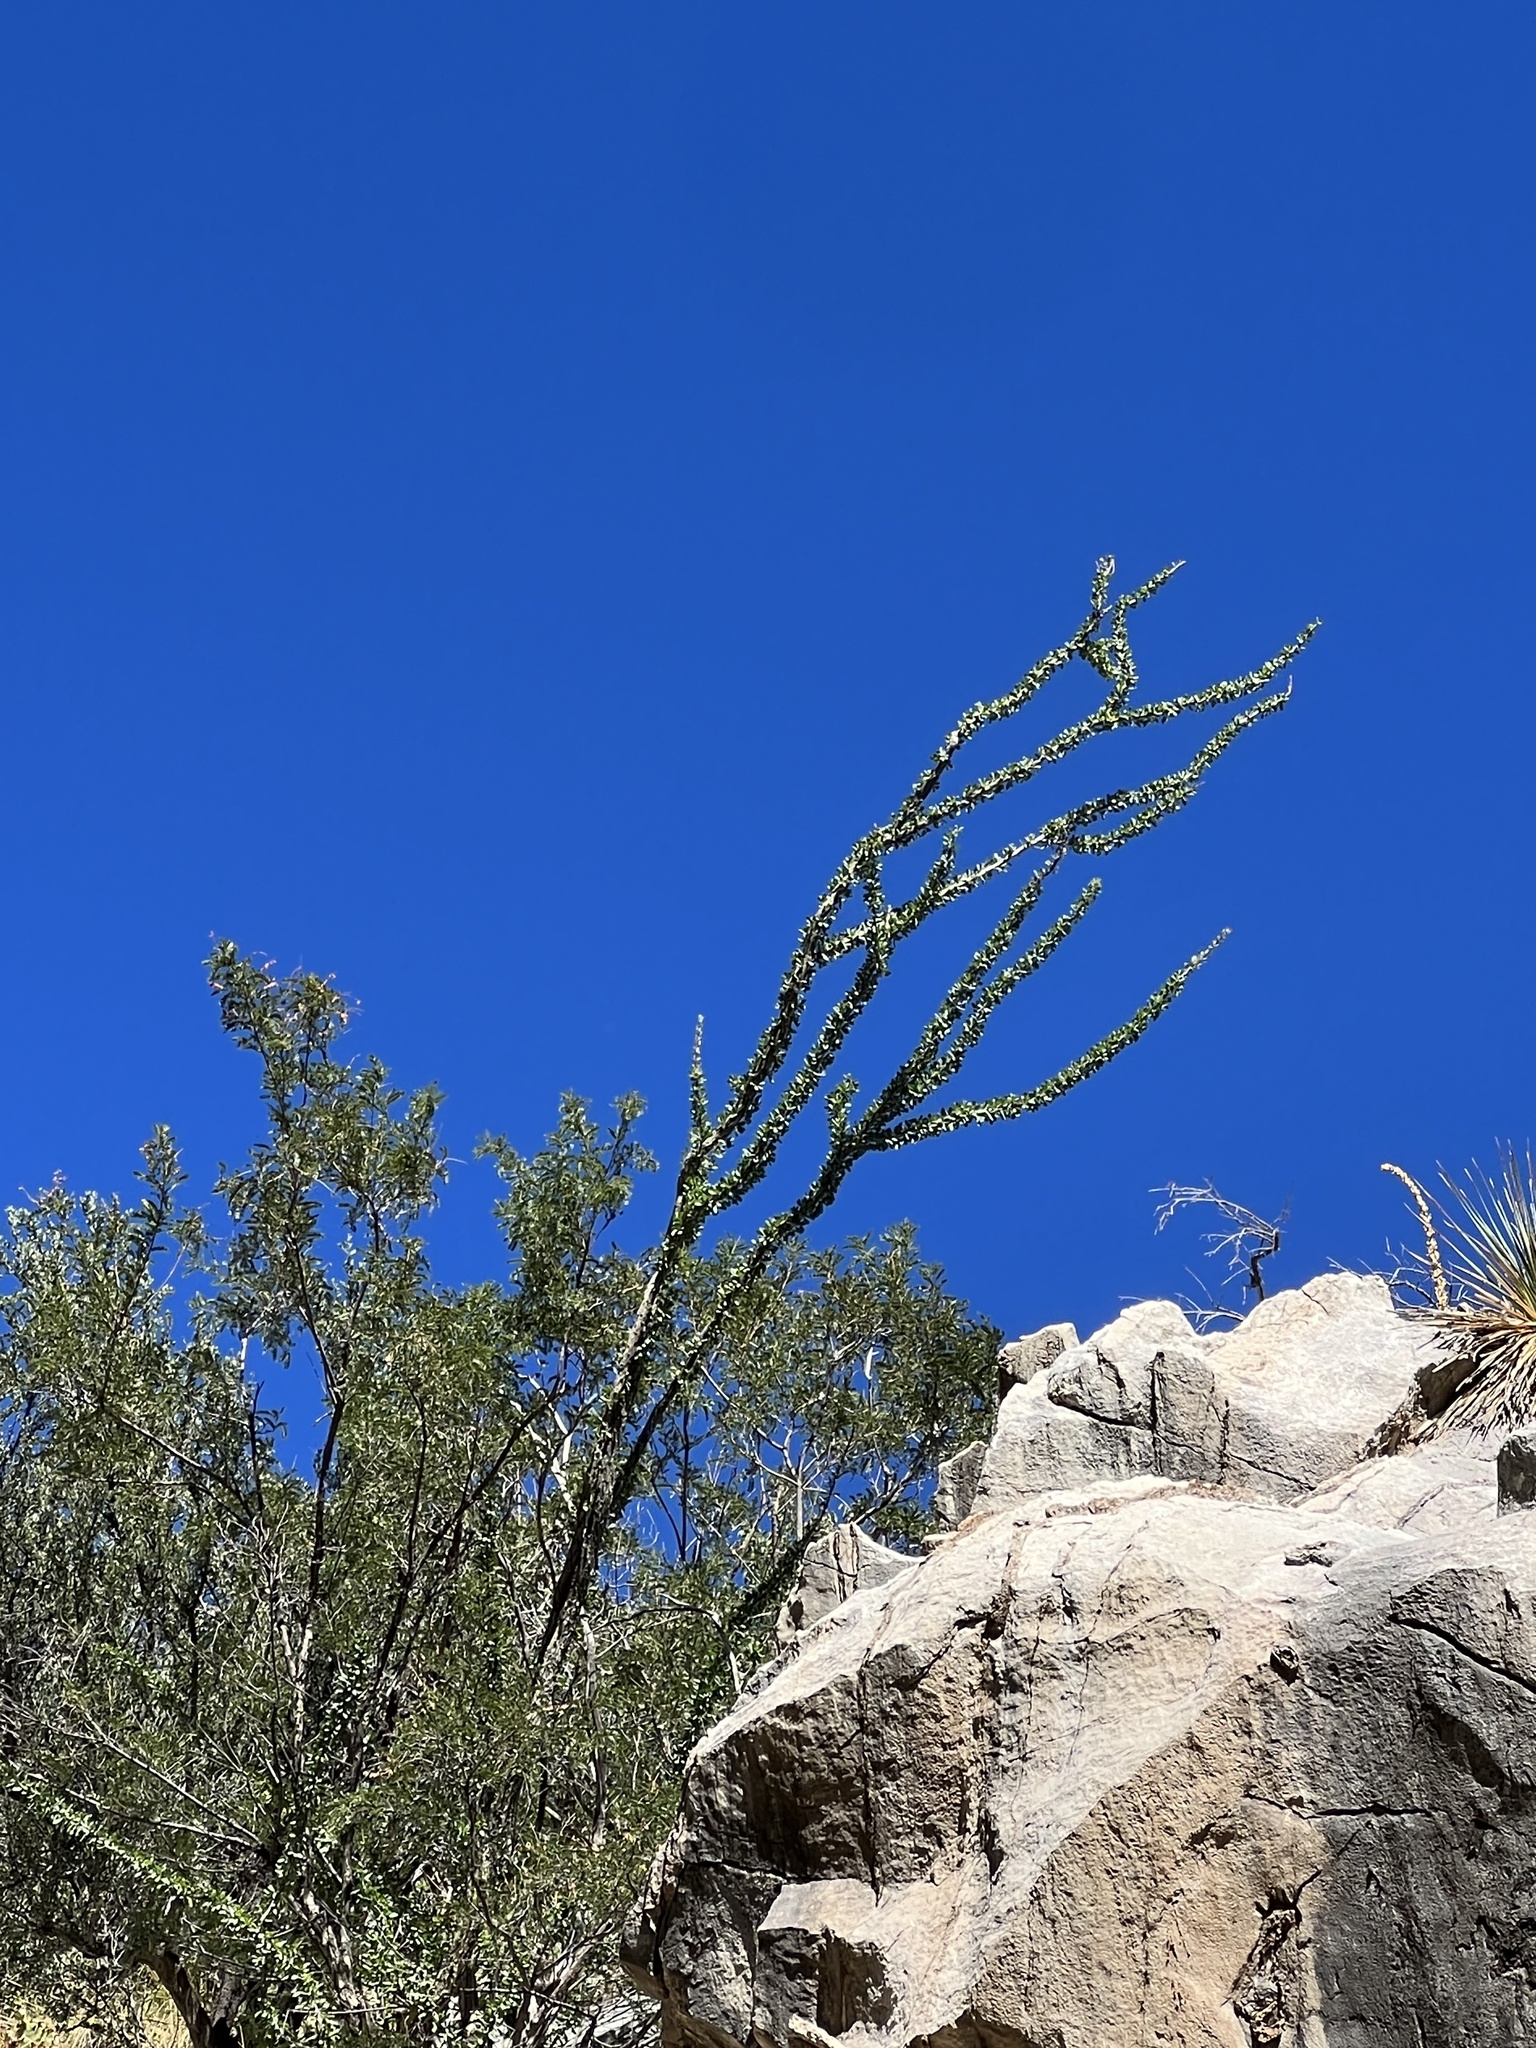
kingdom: Plantae
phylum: Tracheophyta
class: Magnoliopsida
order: Ericales
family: Fouquieriaceae
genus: Fouquieria
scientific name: Fouquieria splendens
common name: Vine-cactus
